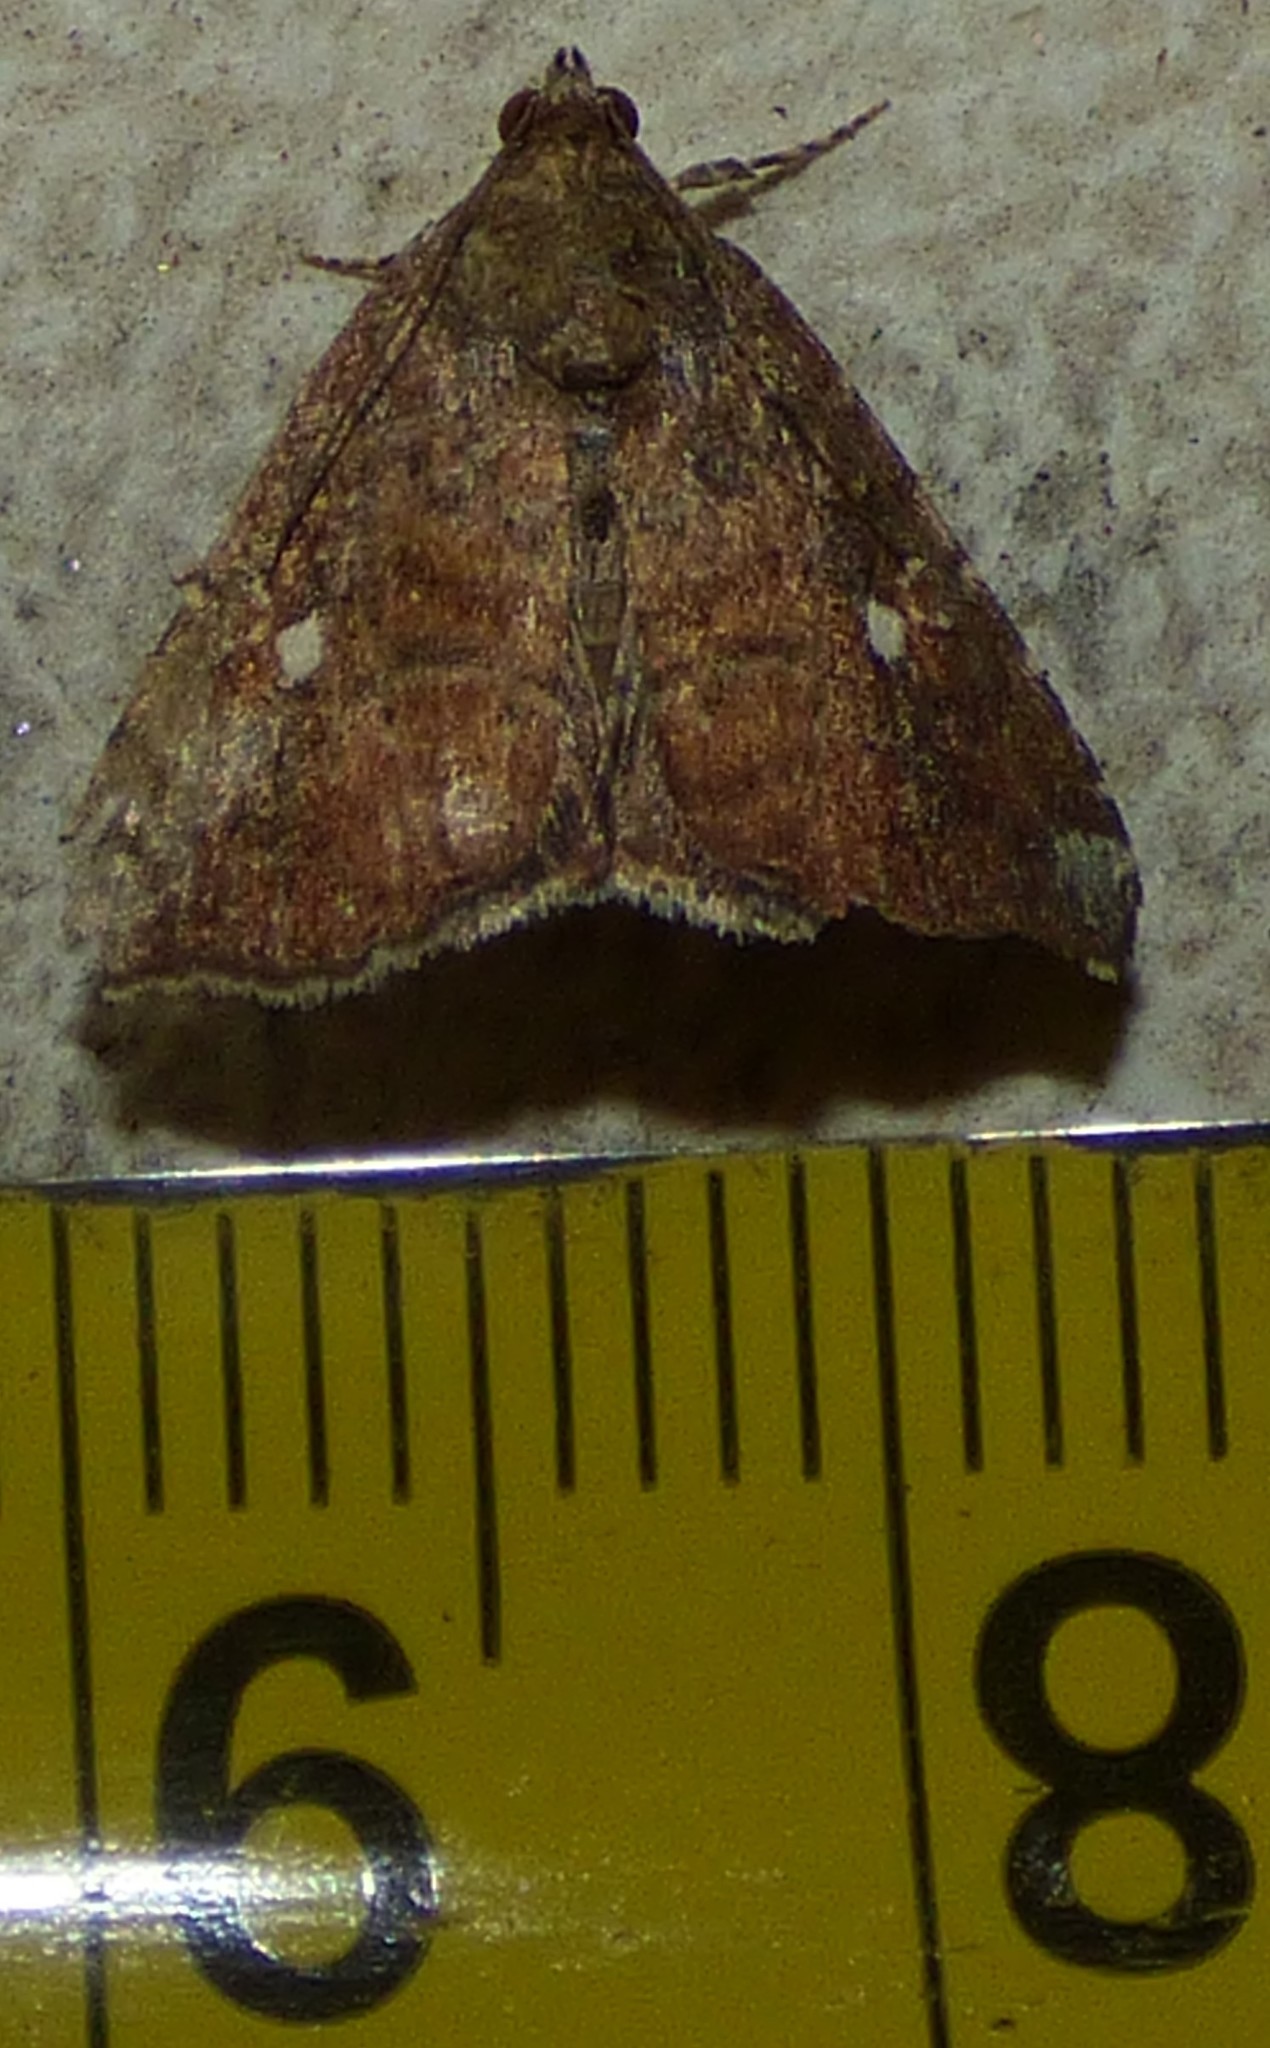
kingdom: Animalia
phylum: Arthropoda
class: Insecta
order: Lepidoptera
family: Noctuidae
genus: Amyna
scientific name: Amyna bullula
